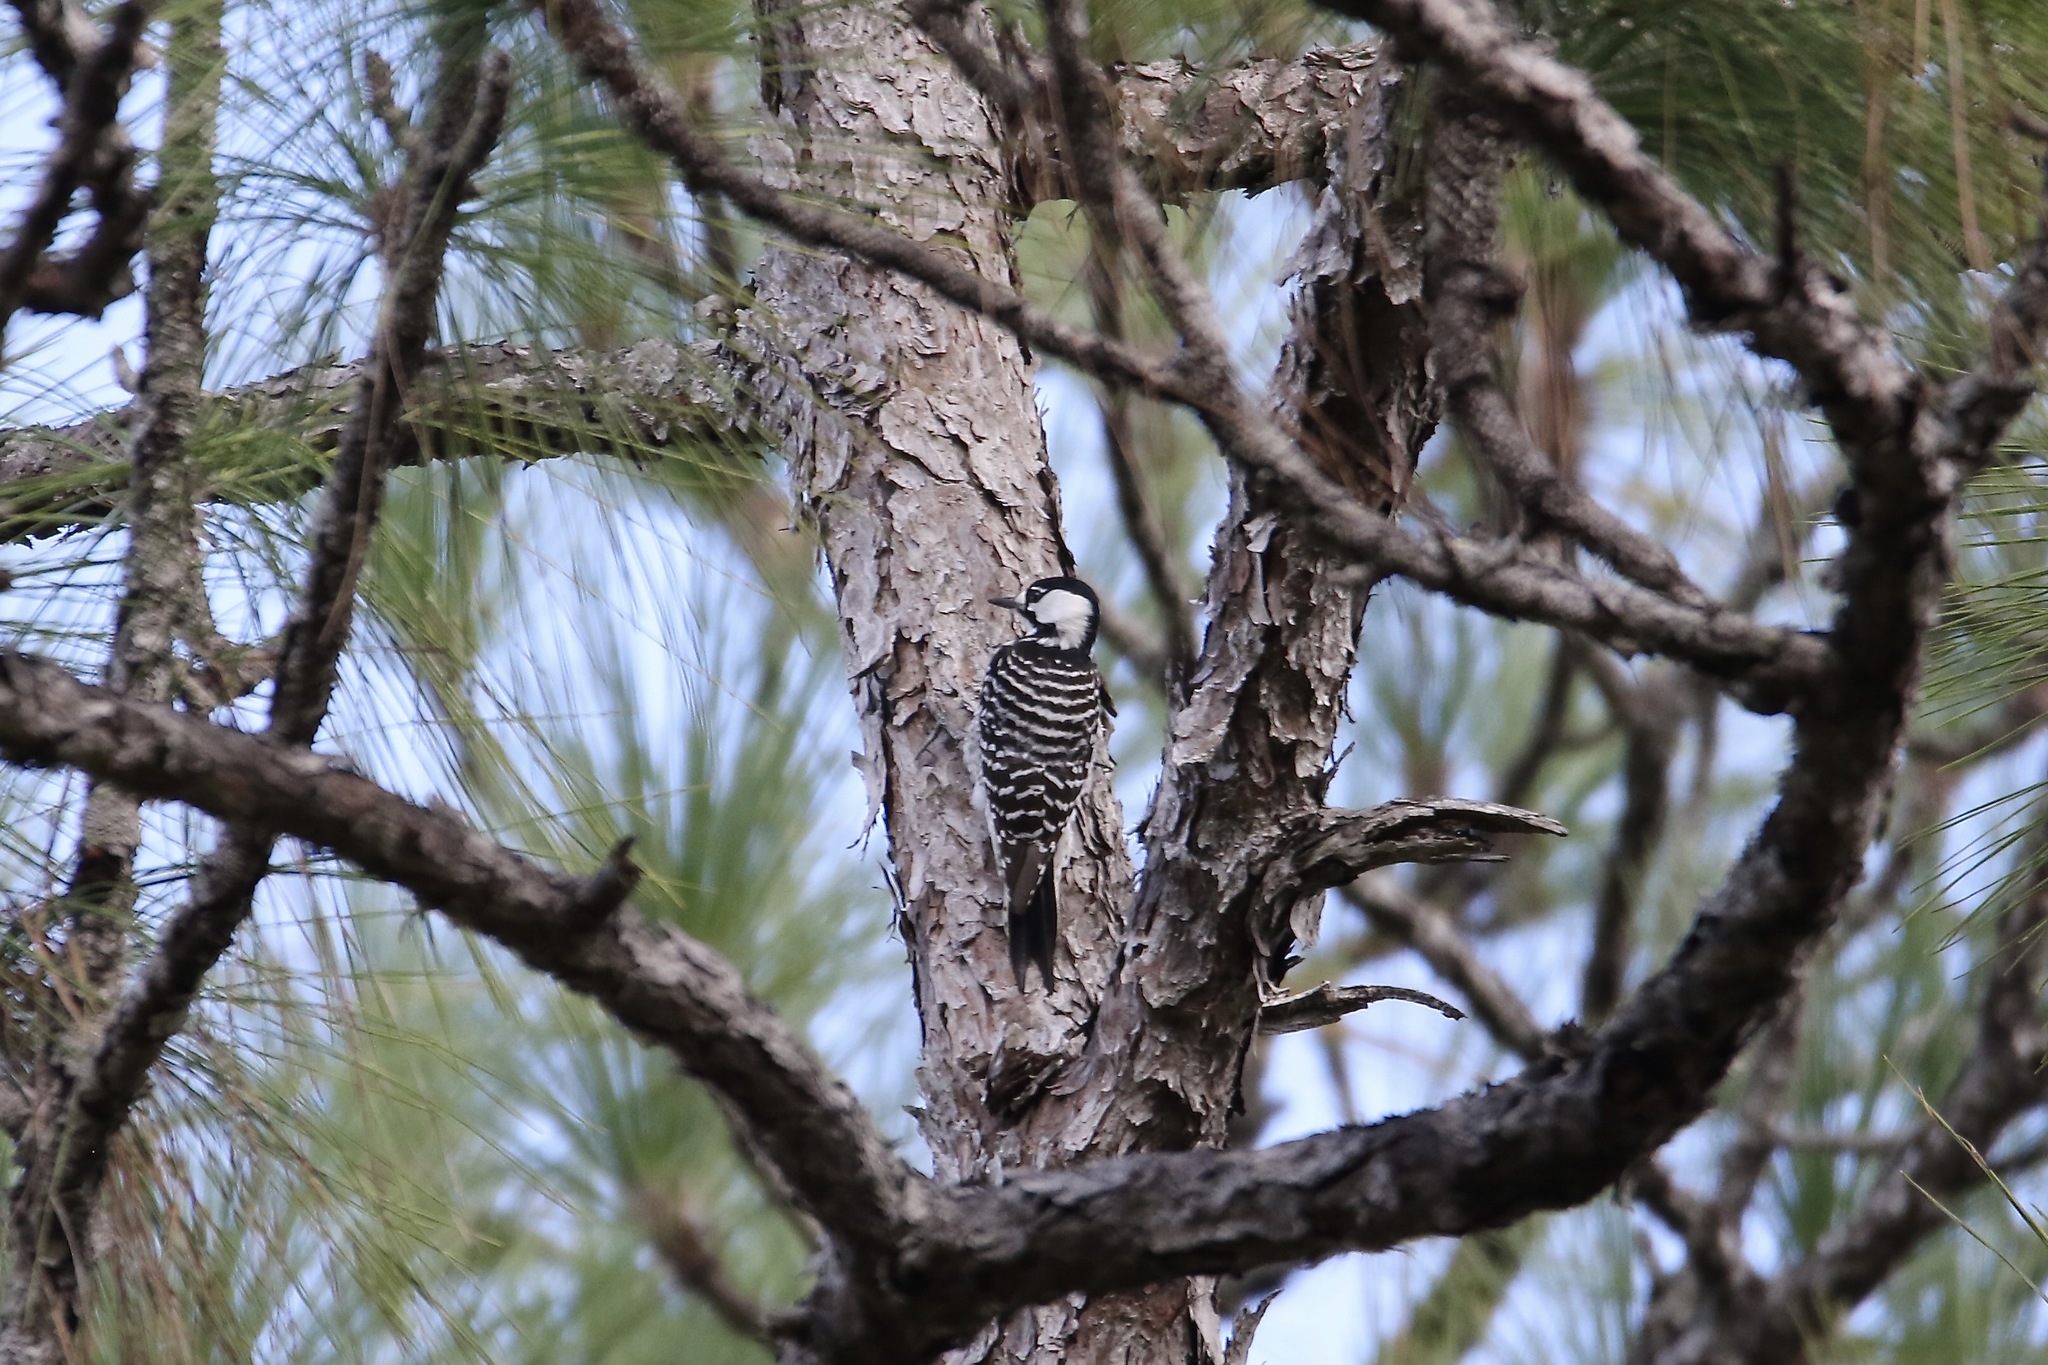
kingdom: Animalia
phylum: Chordata
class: Aves
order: Piciformes
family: Picidae
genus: Leuconotopicus
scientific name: Leuconotopicus borealis
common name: Red-cockaded woodpecker
